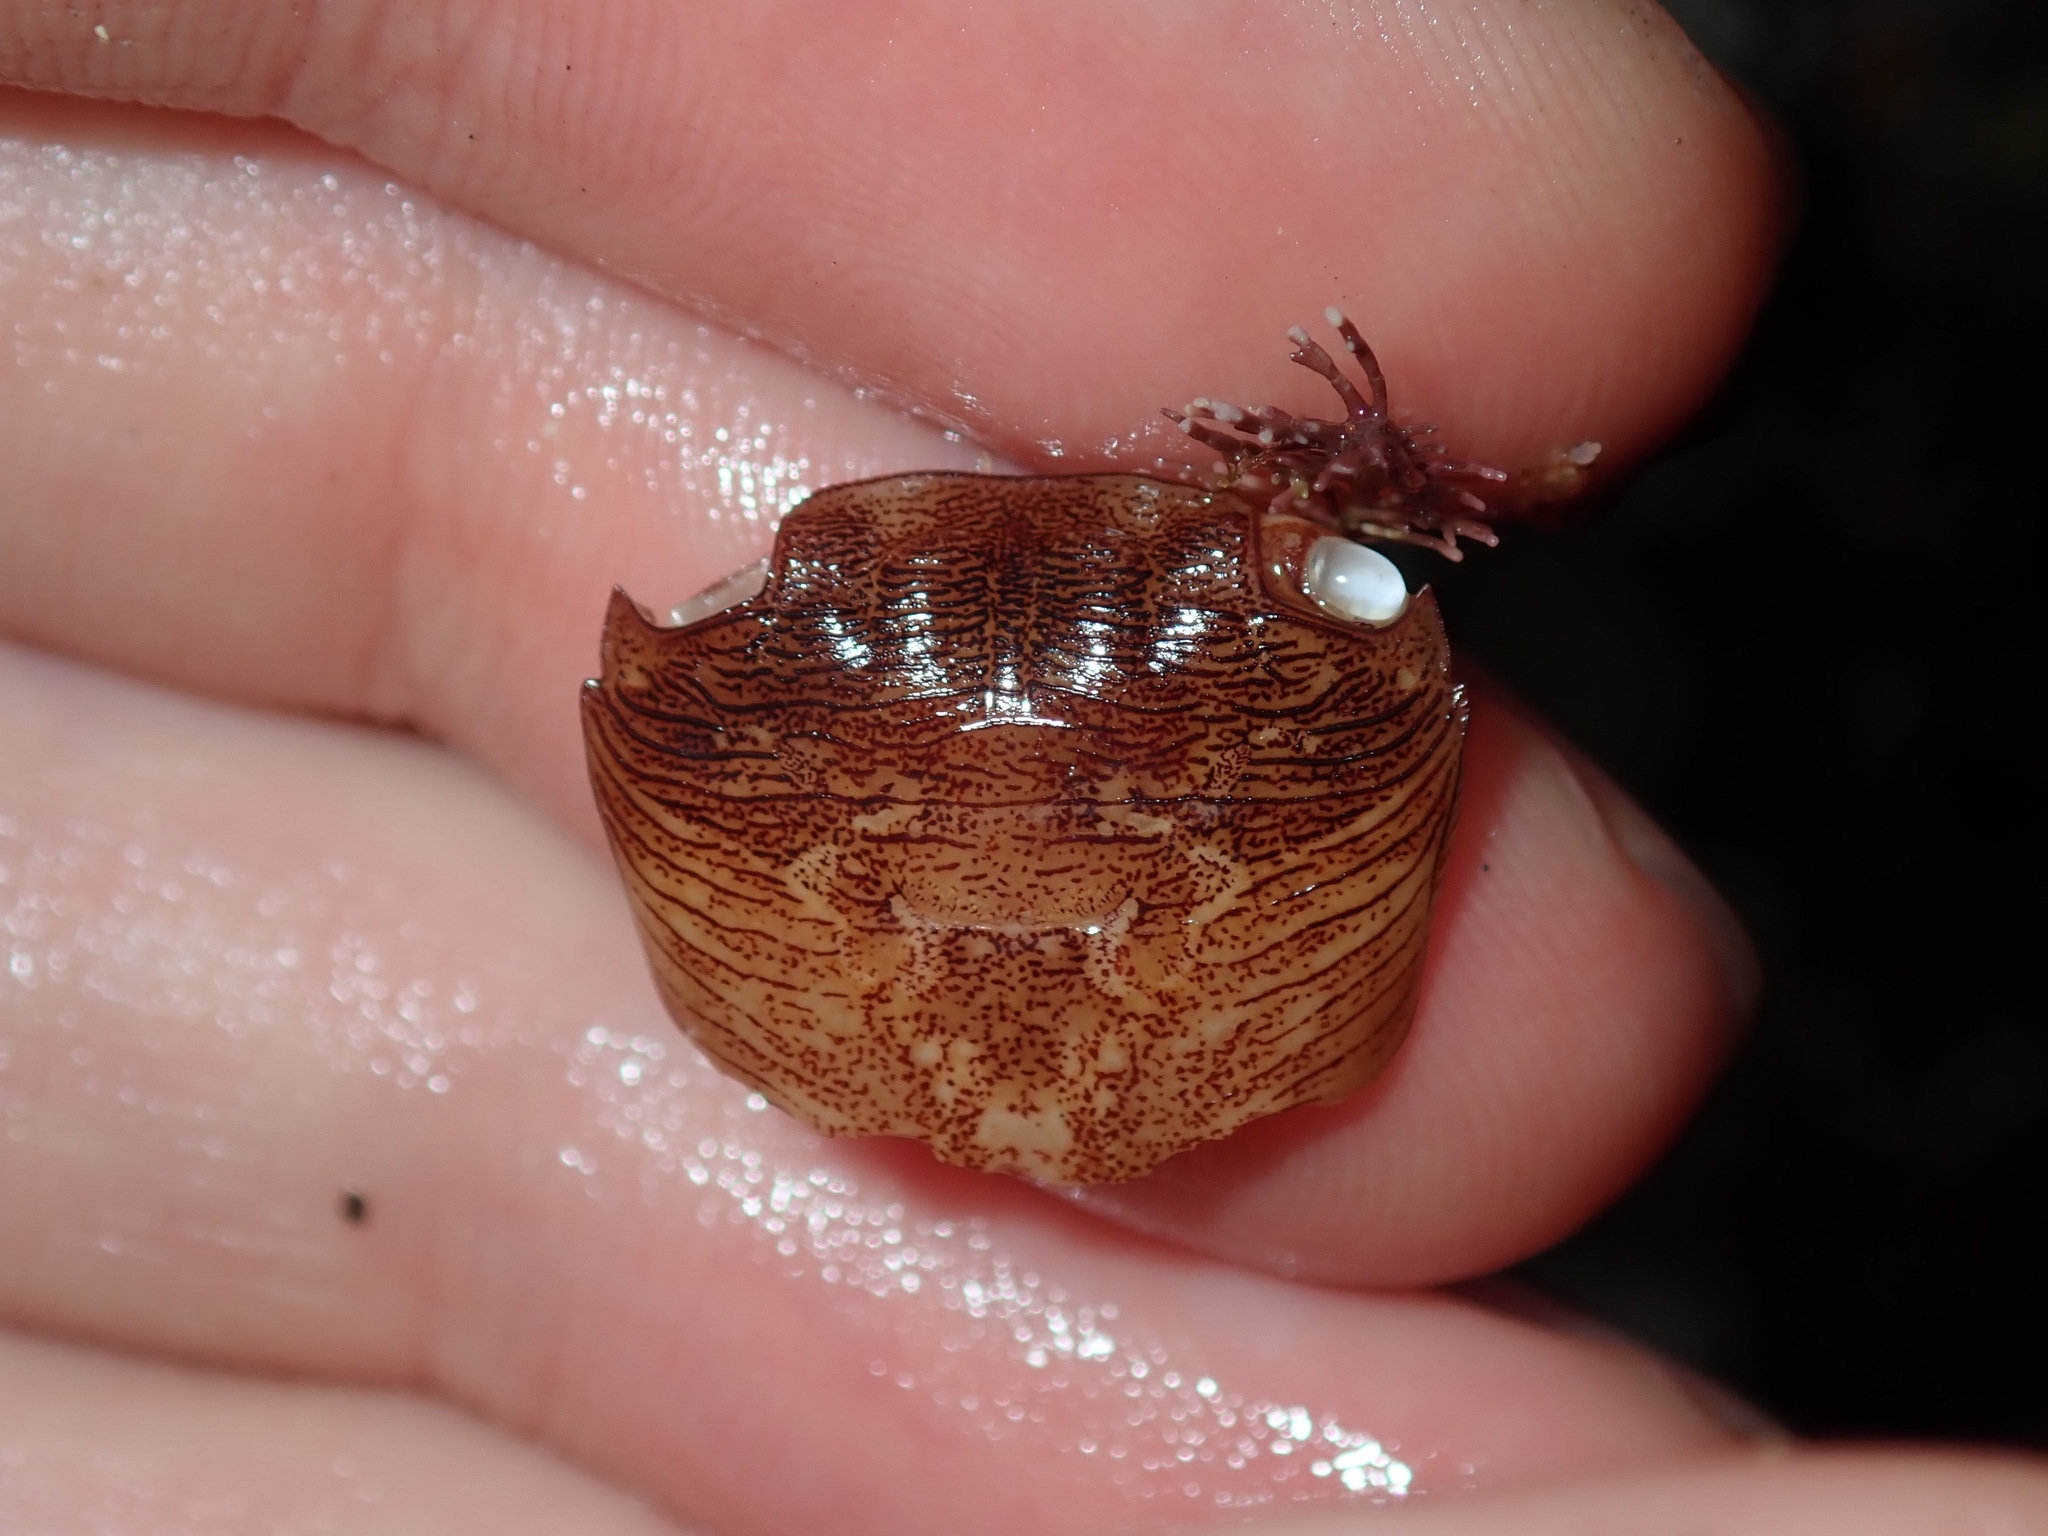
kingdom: Animalia
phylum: Arthropoda
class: Malacostraca
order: Decapoda
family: Grapsidae
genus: Pachygrapsus
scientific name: Pachygrapsus laevimanus
